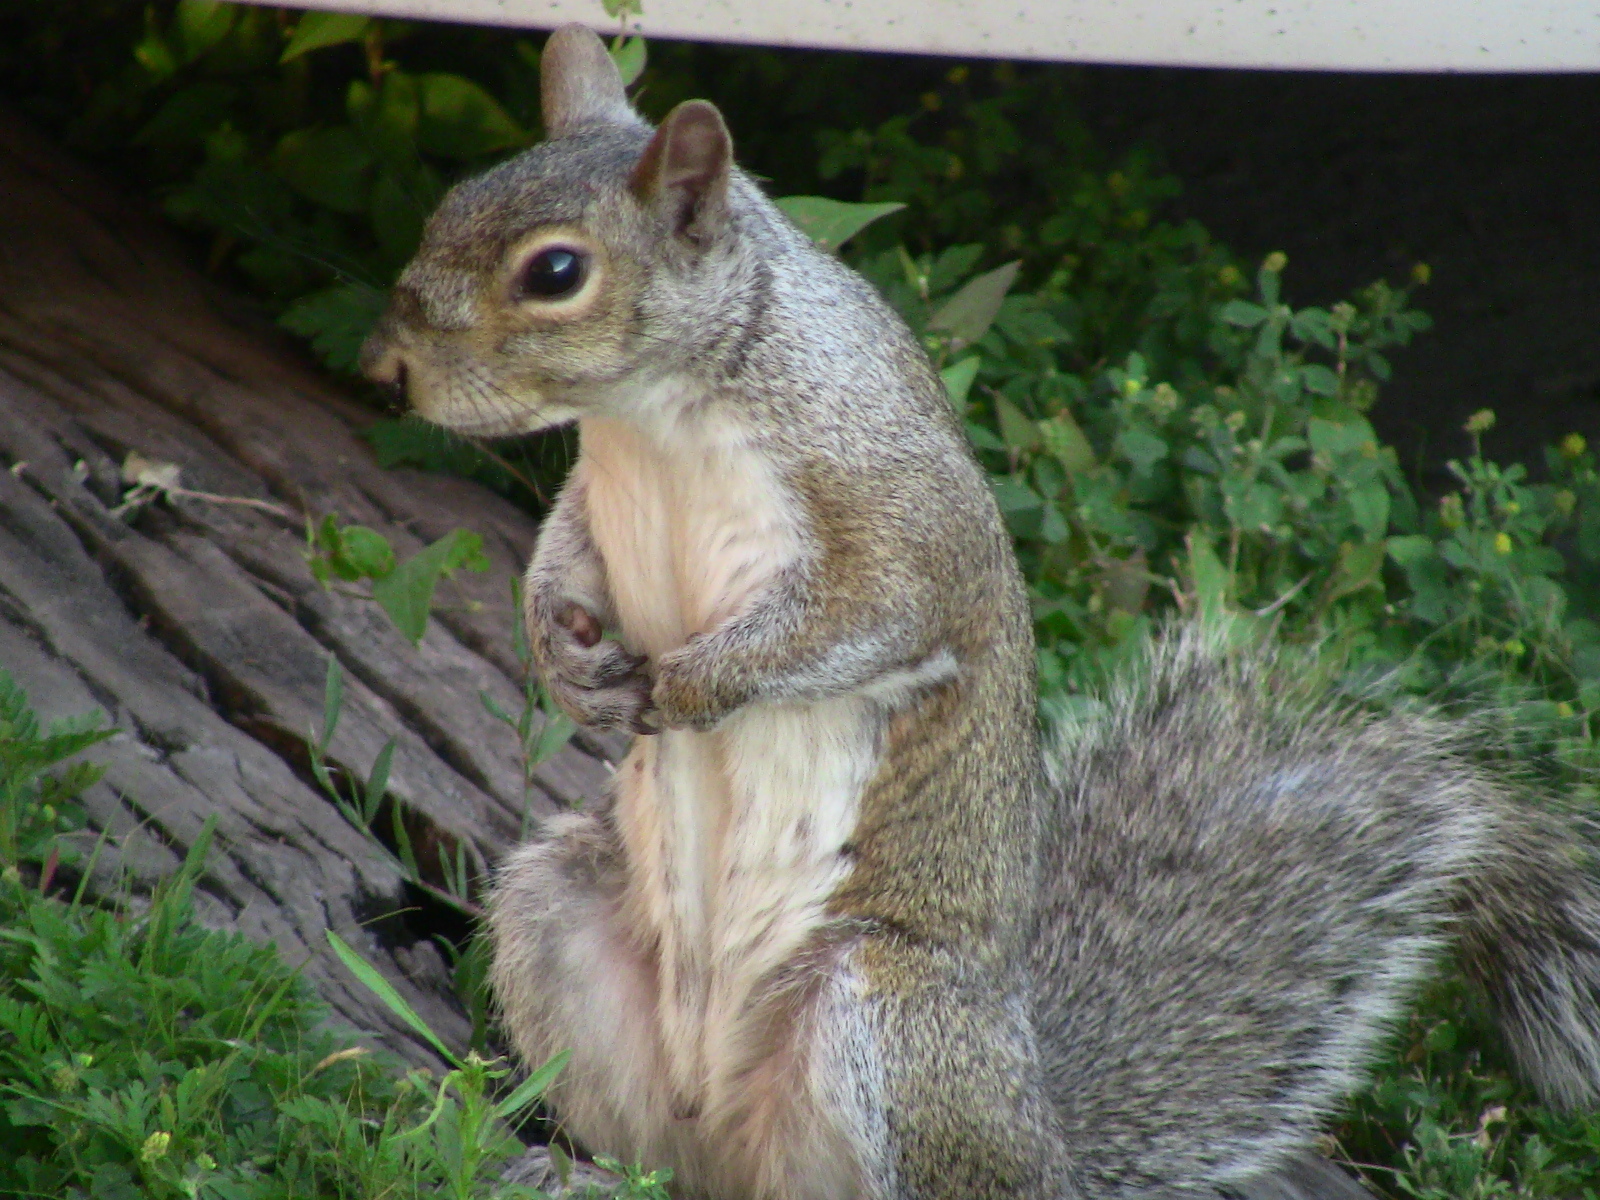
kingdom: Animalia
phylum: Chordata
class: Mammalia
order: Rodentia
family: Sciuridae
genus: Sciurus
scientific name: Sciurus carolinensis
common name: Eastern gray squirrel
